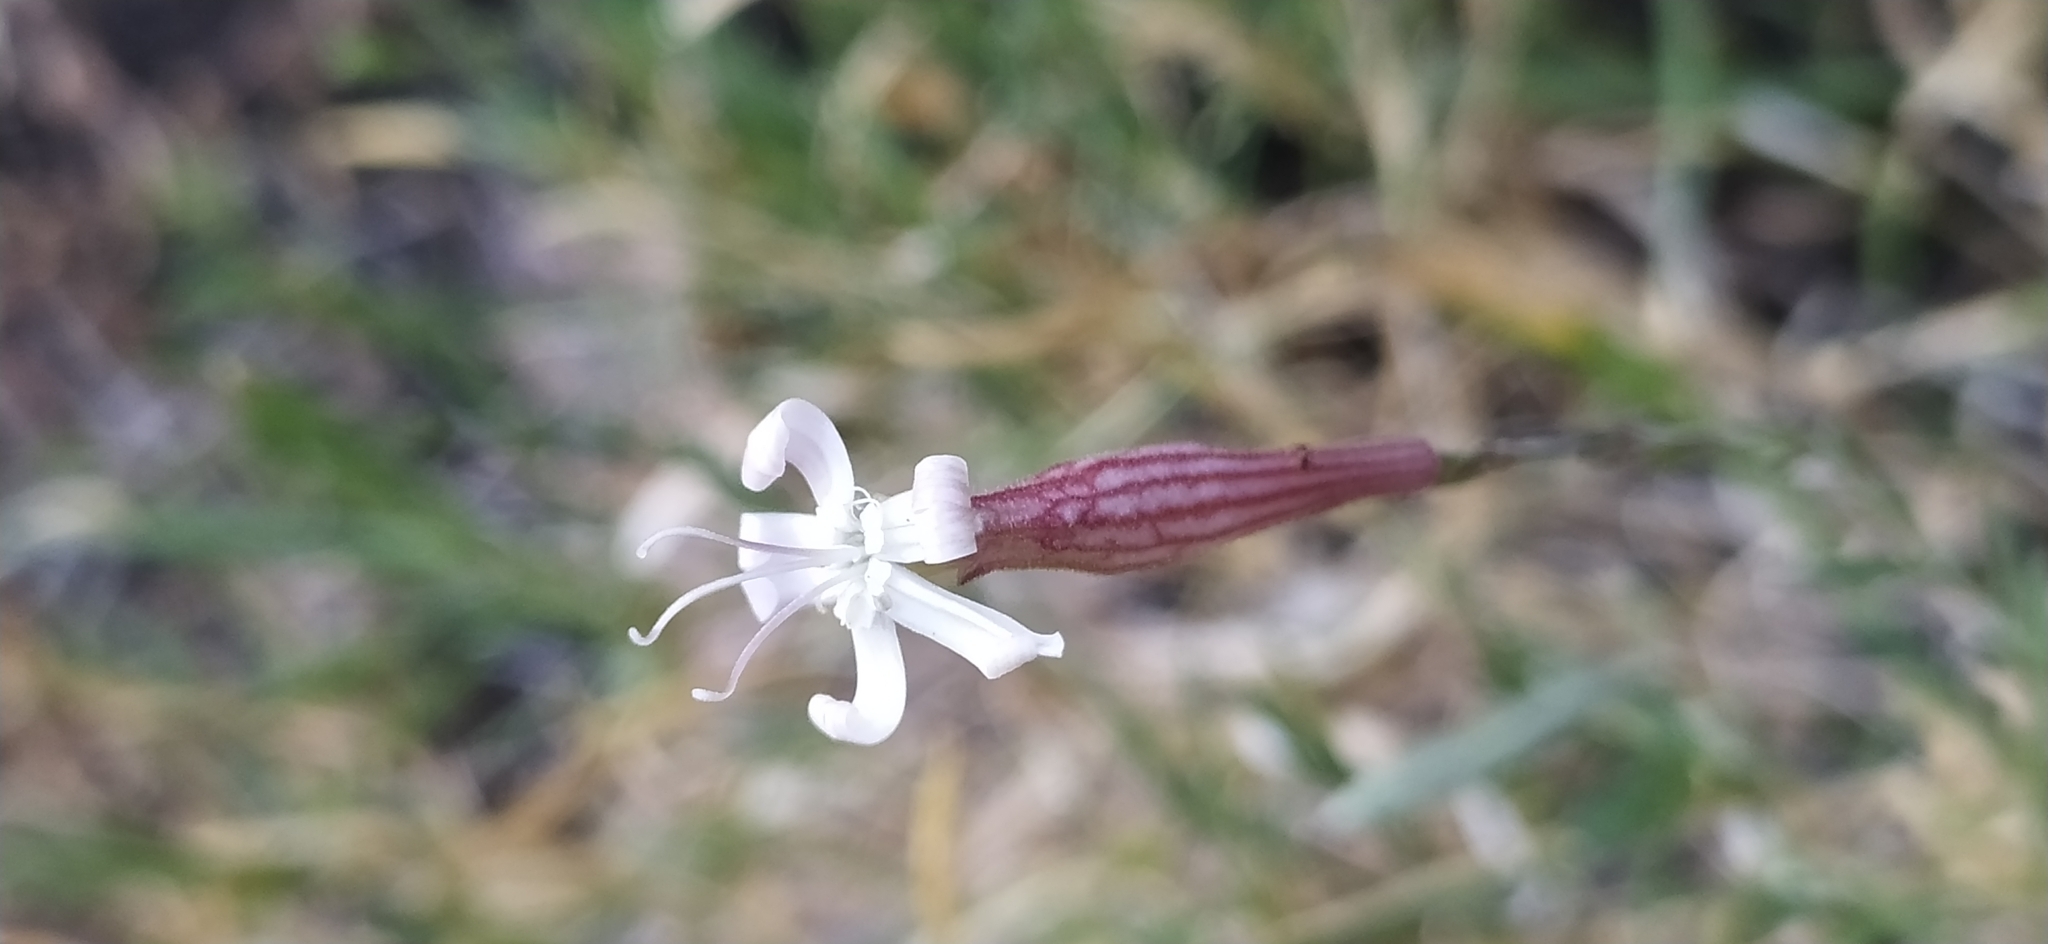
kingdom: Plantae
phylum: Tracheophyta
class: Magnoliopsida
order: Caryophyllales
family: Caryophyllaceae
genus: Silene
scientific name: Silene guntensis
